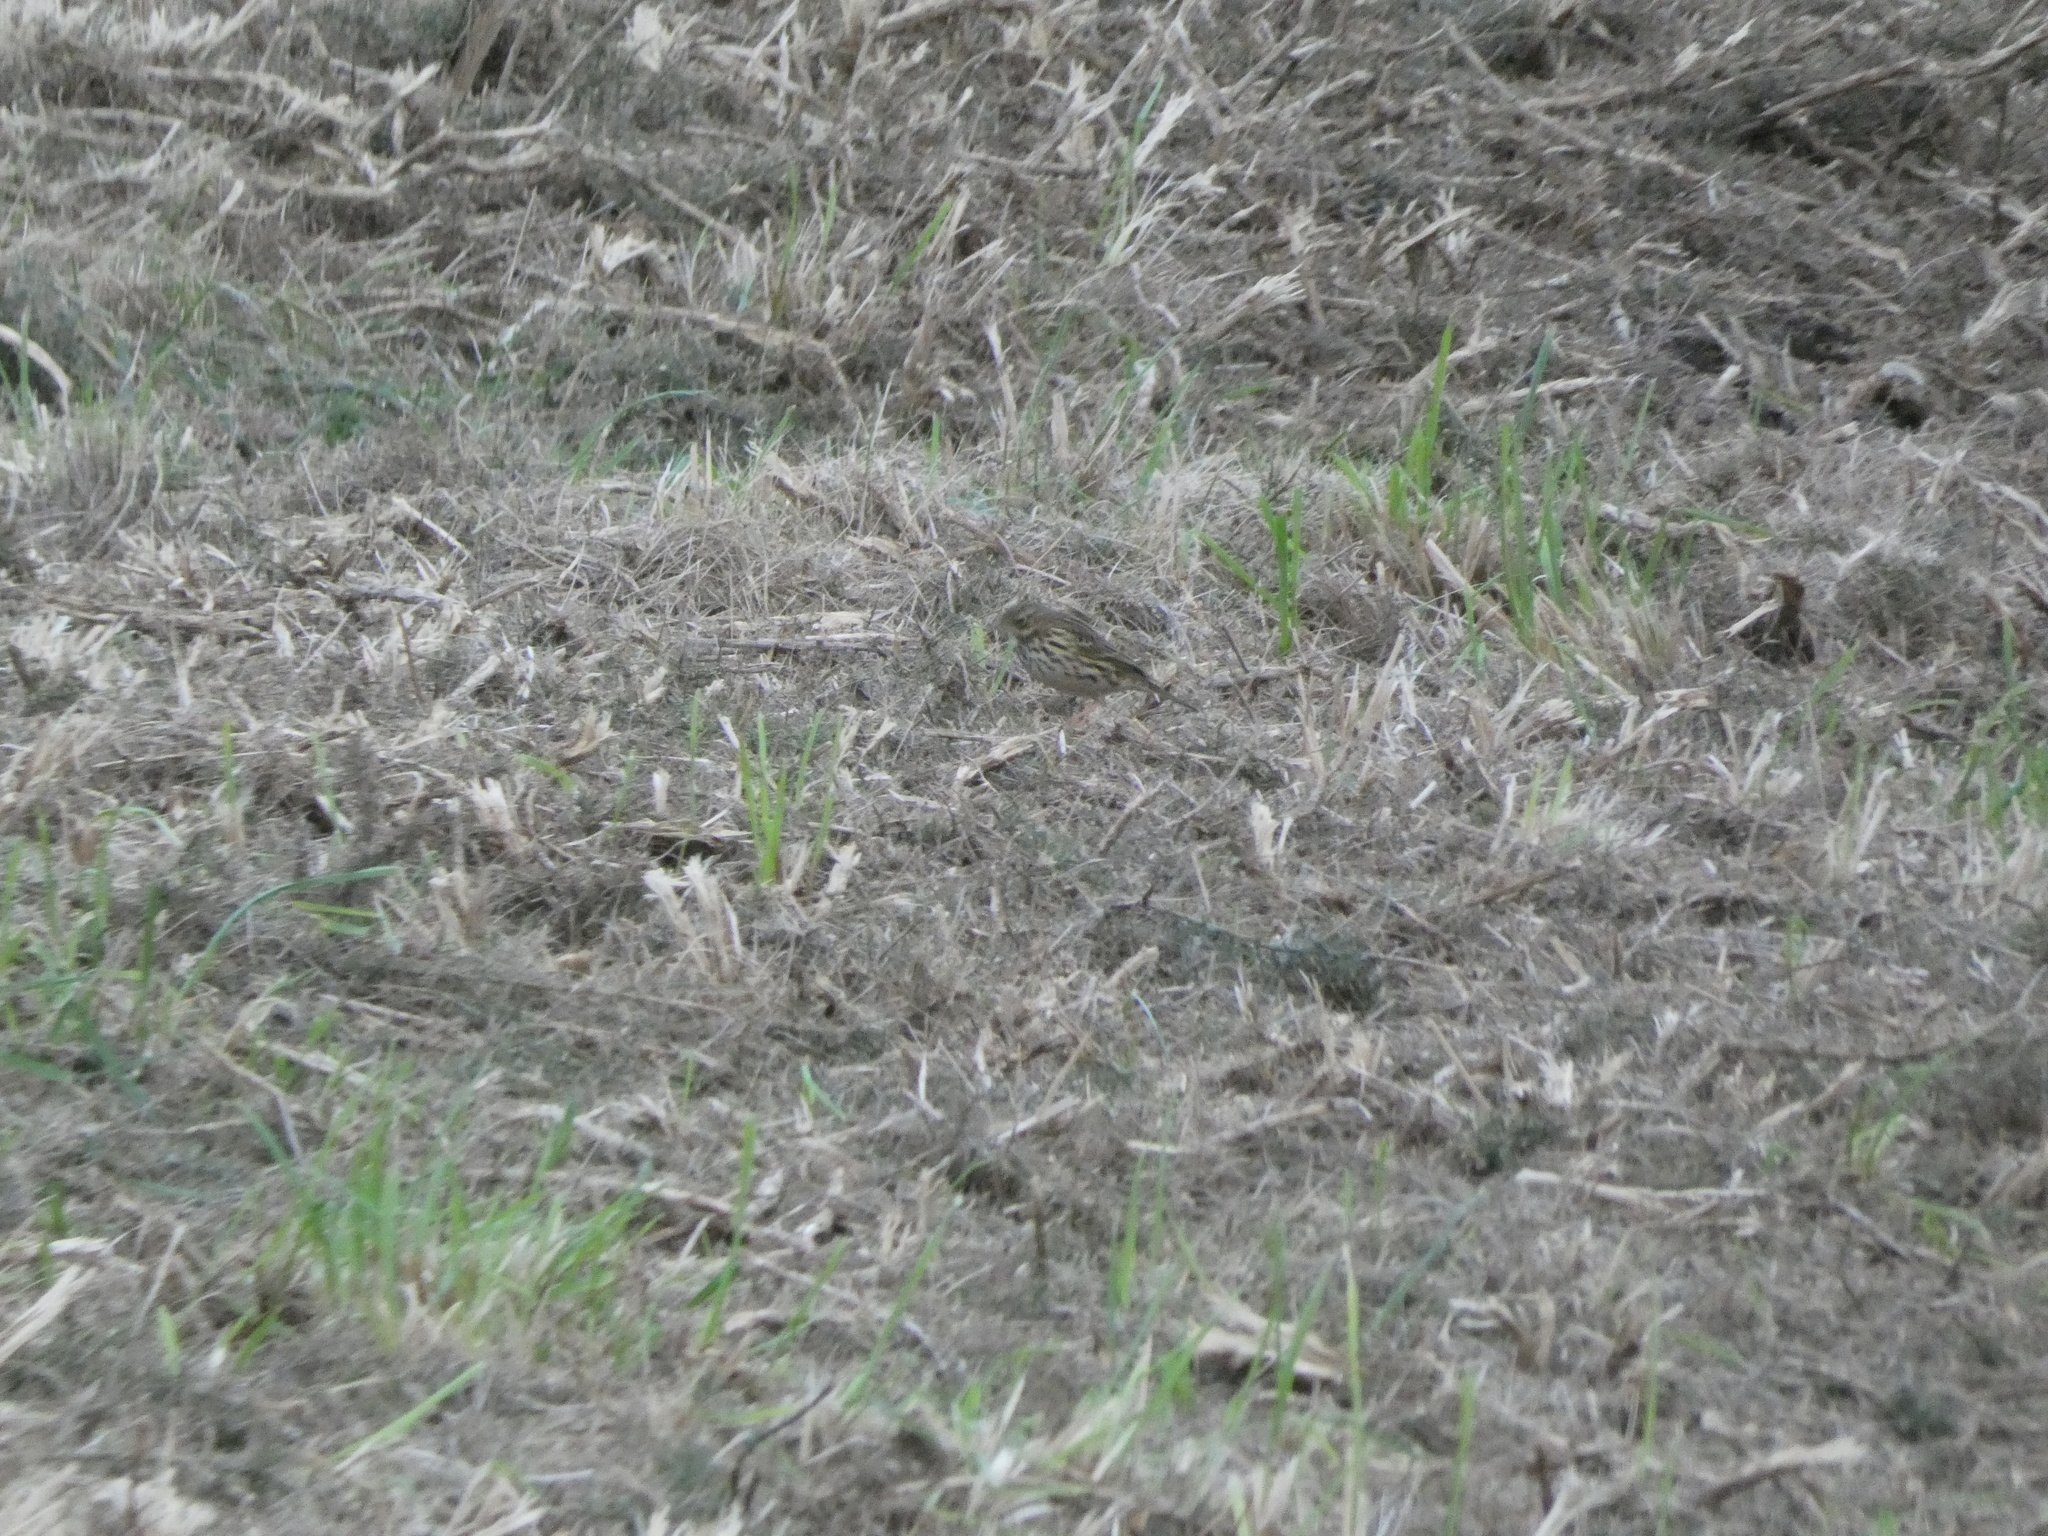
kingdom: Animalia
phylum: Chordata
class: Aves
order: Passeriformes
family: Motacillidae
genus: Anthus
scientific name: Anthus spinoletta
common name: Water pipit
